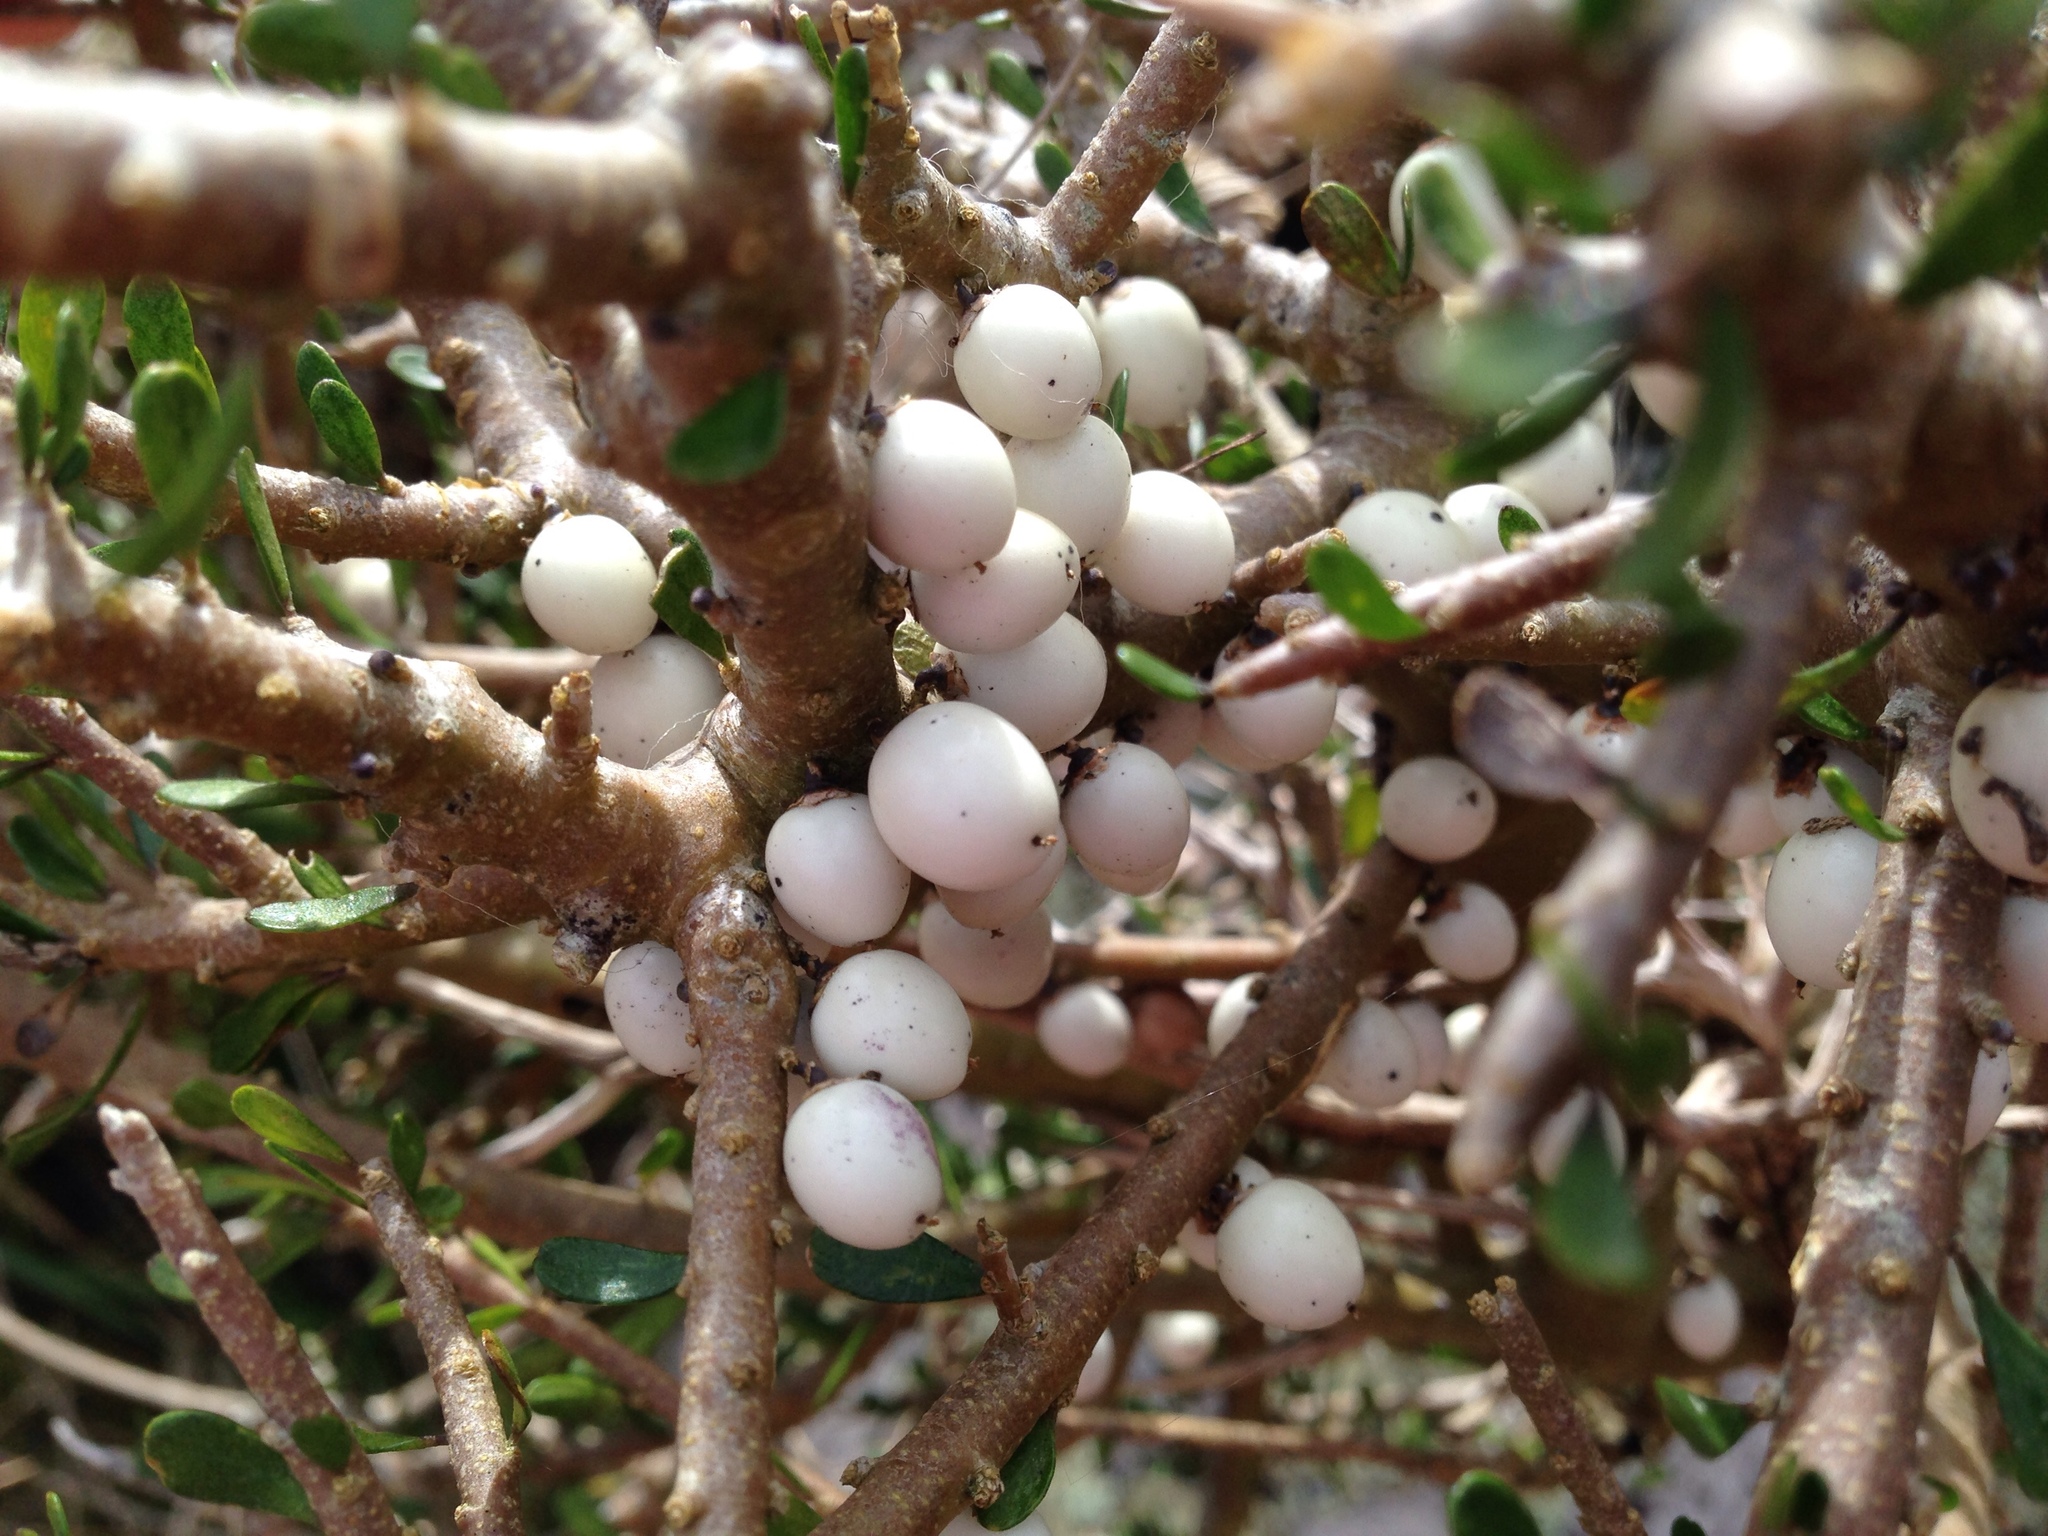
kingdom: Plantae
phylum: Tracheophyta
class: Magnoliopsida
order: Malpighiales
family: Violaceae
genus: Melicytus
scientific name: Melicytus alpinus
